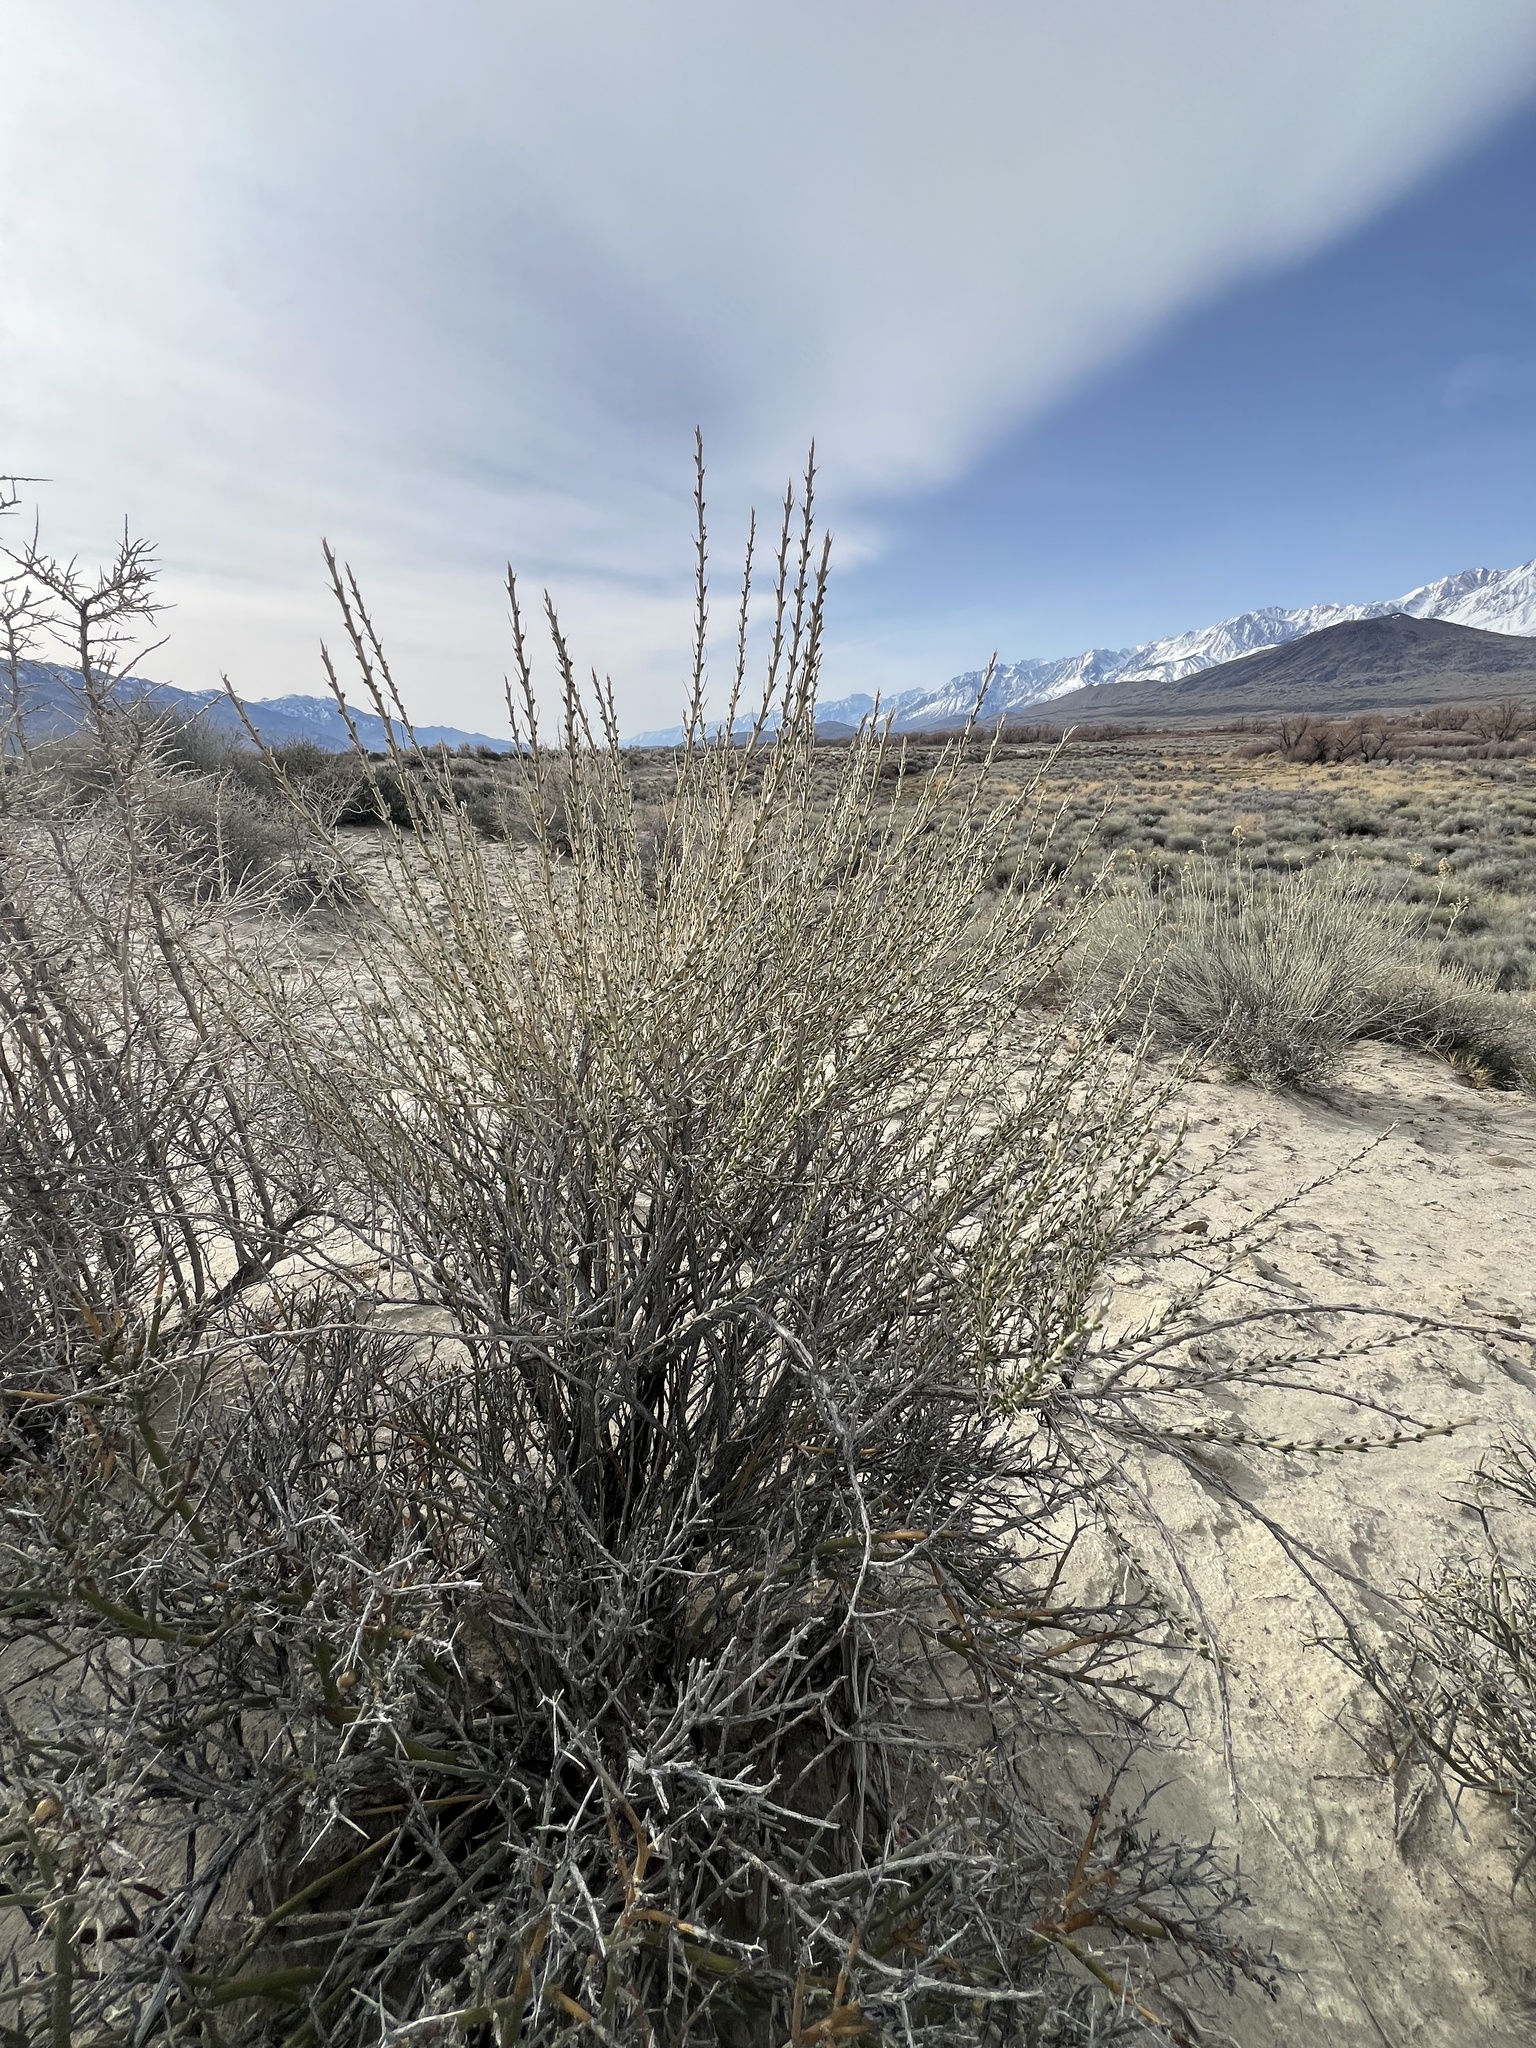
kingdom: Plantae
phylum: Tracheophyta
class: Magnoliopsida
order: Asterales
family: Asteraceae
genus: Tetradymia
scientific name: Tetradymia glabrata
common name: Smooth tetradymia
